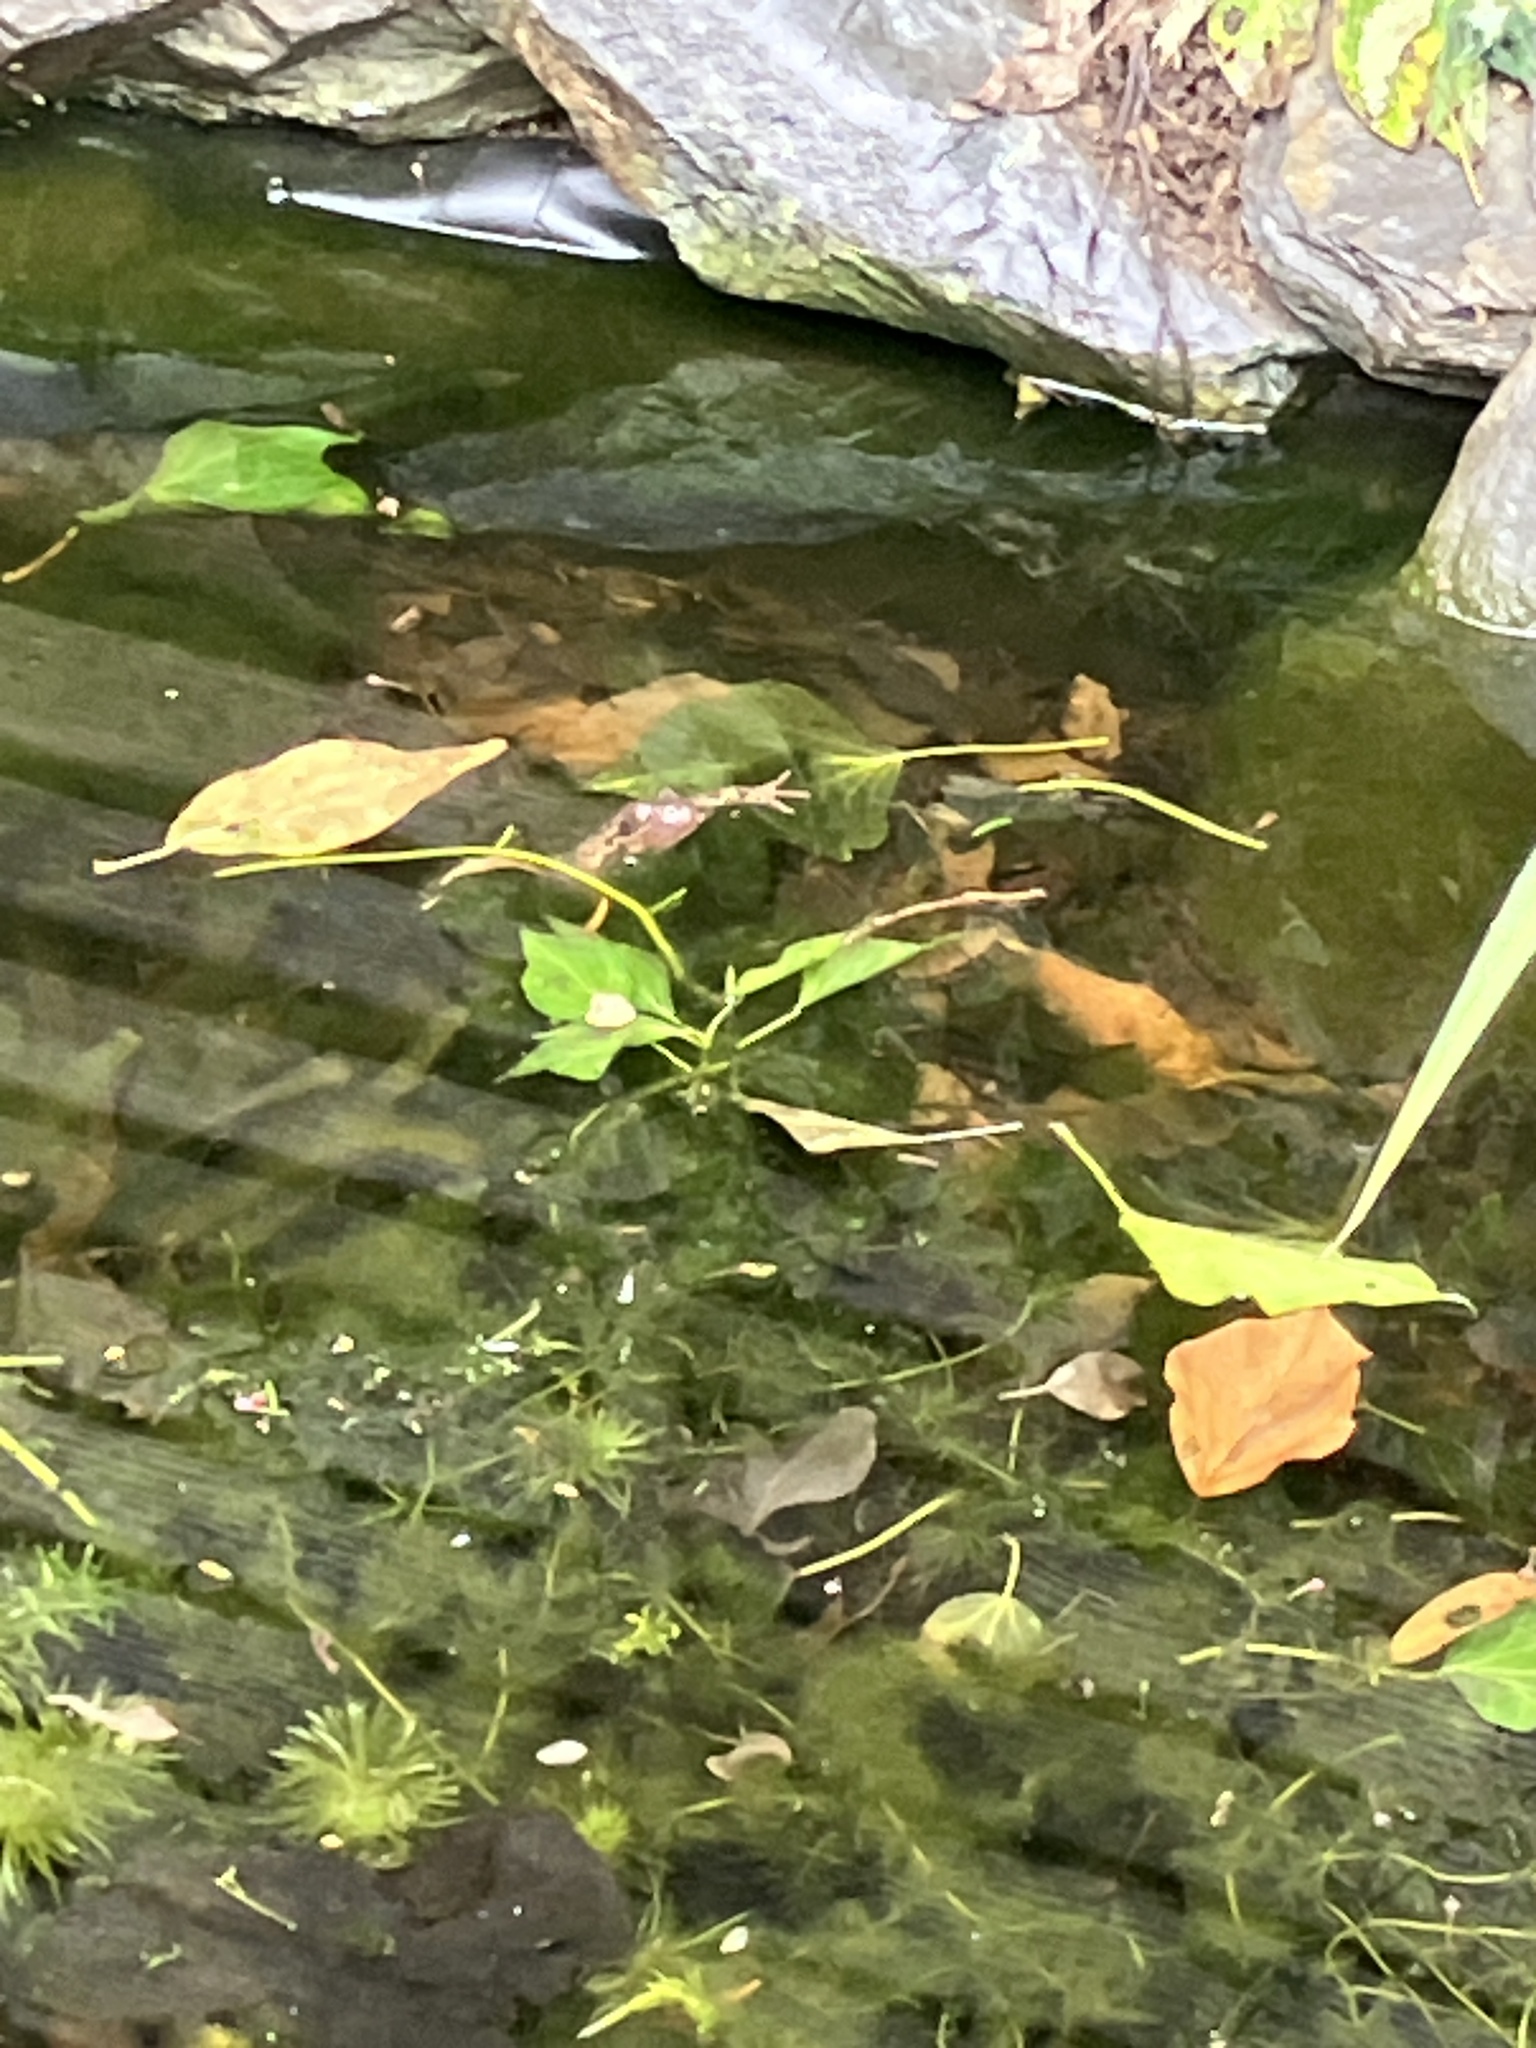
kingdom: Animalia
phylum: Chordata
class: Amphibia
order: Anura
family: Ranidae
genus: Rana
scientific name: Rana temporaria
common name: Common frog
